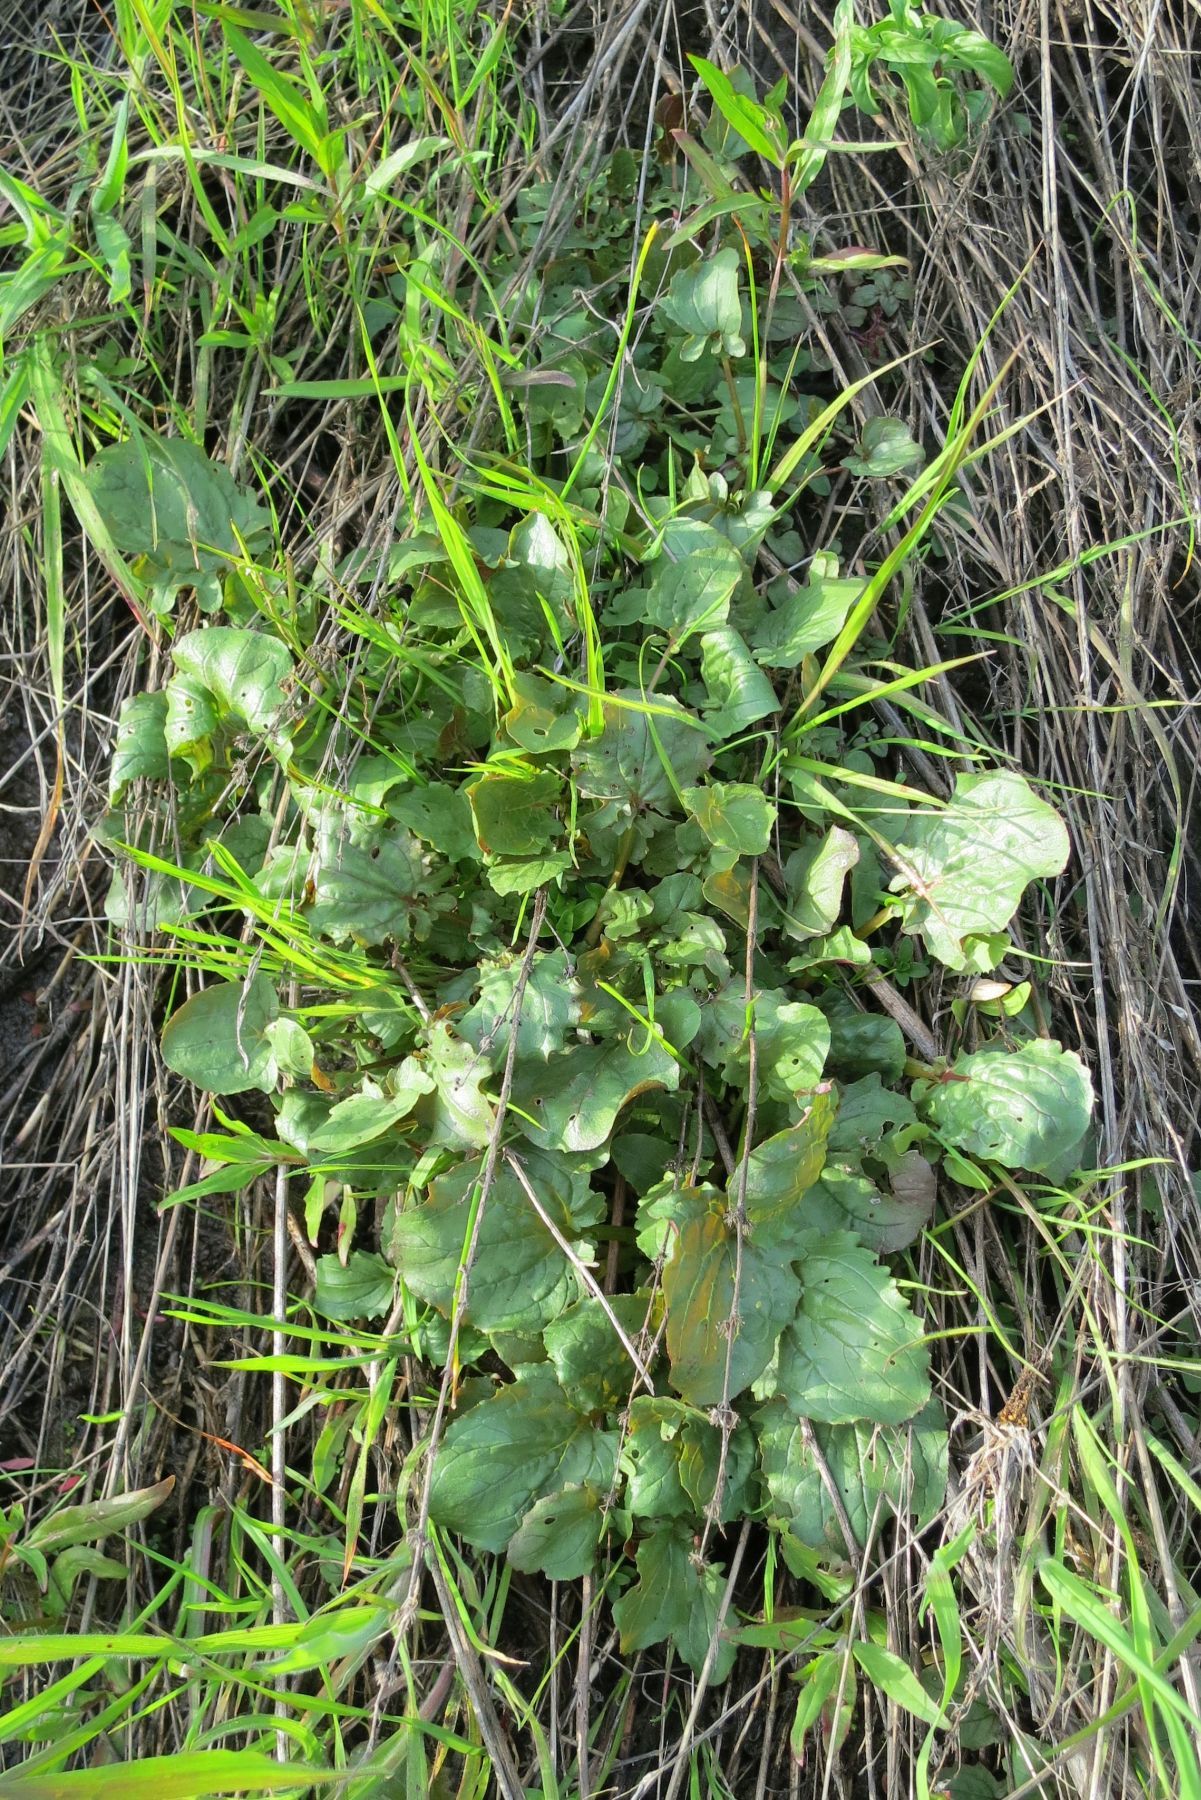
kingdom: Plantae
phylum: Tracheophyta
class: Magnoliopsida
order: Lamiales
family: Phrymaceae
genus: Erythranthe
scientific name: Erythranthe guttata
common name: Monkeyflower
